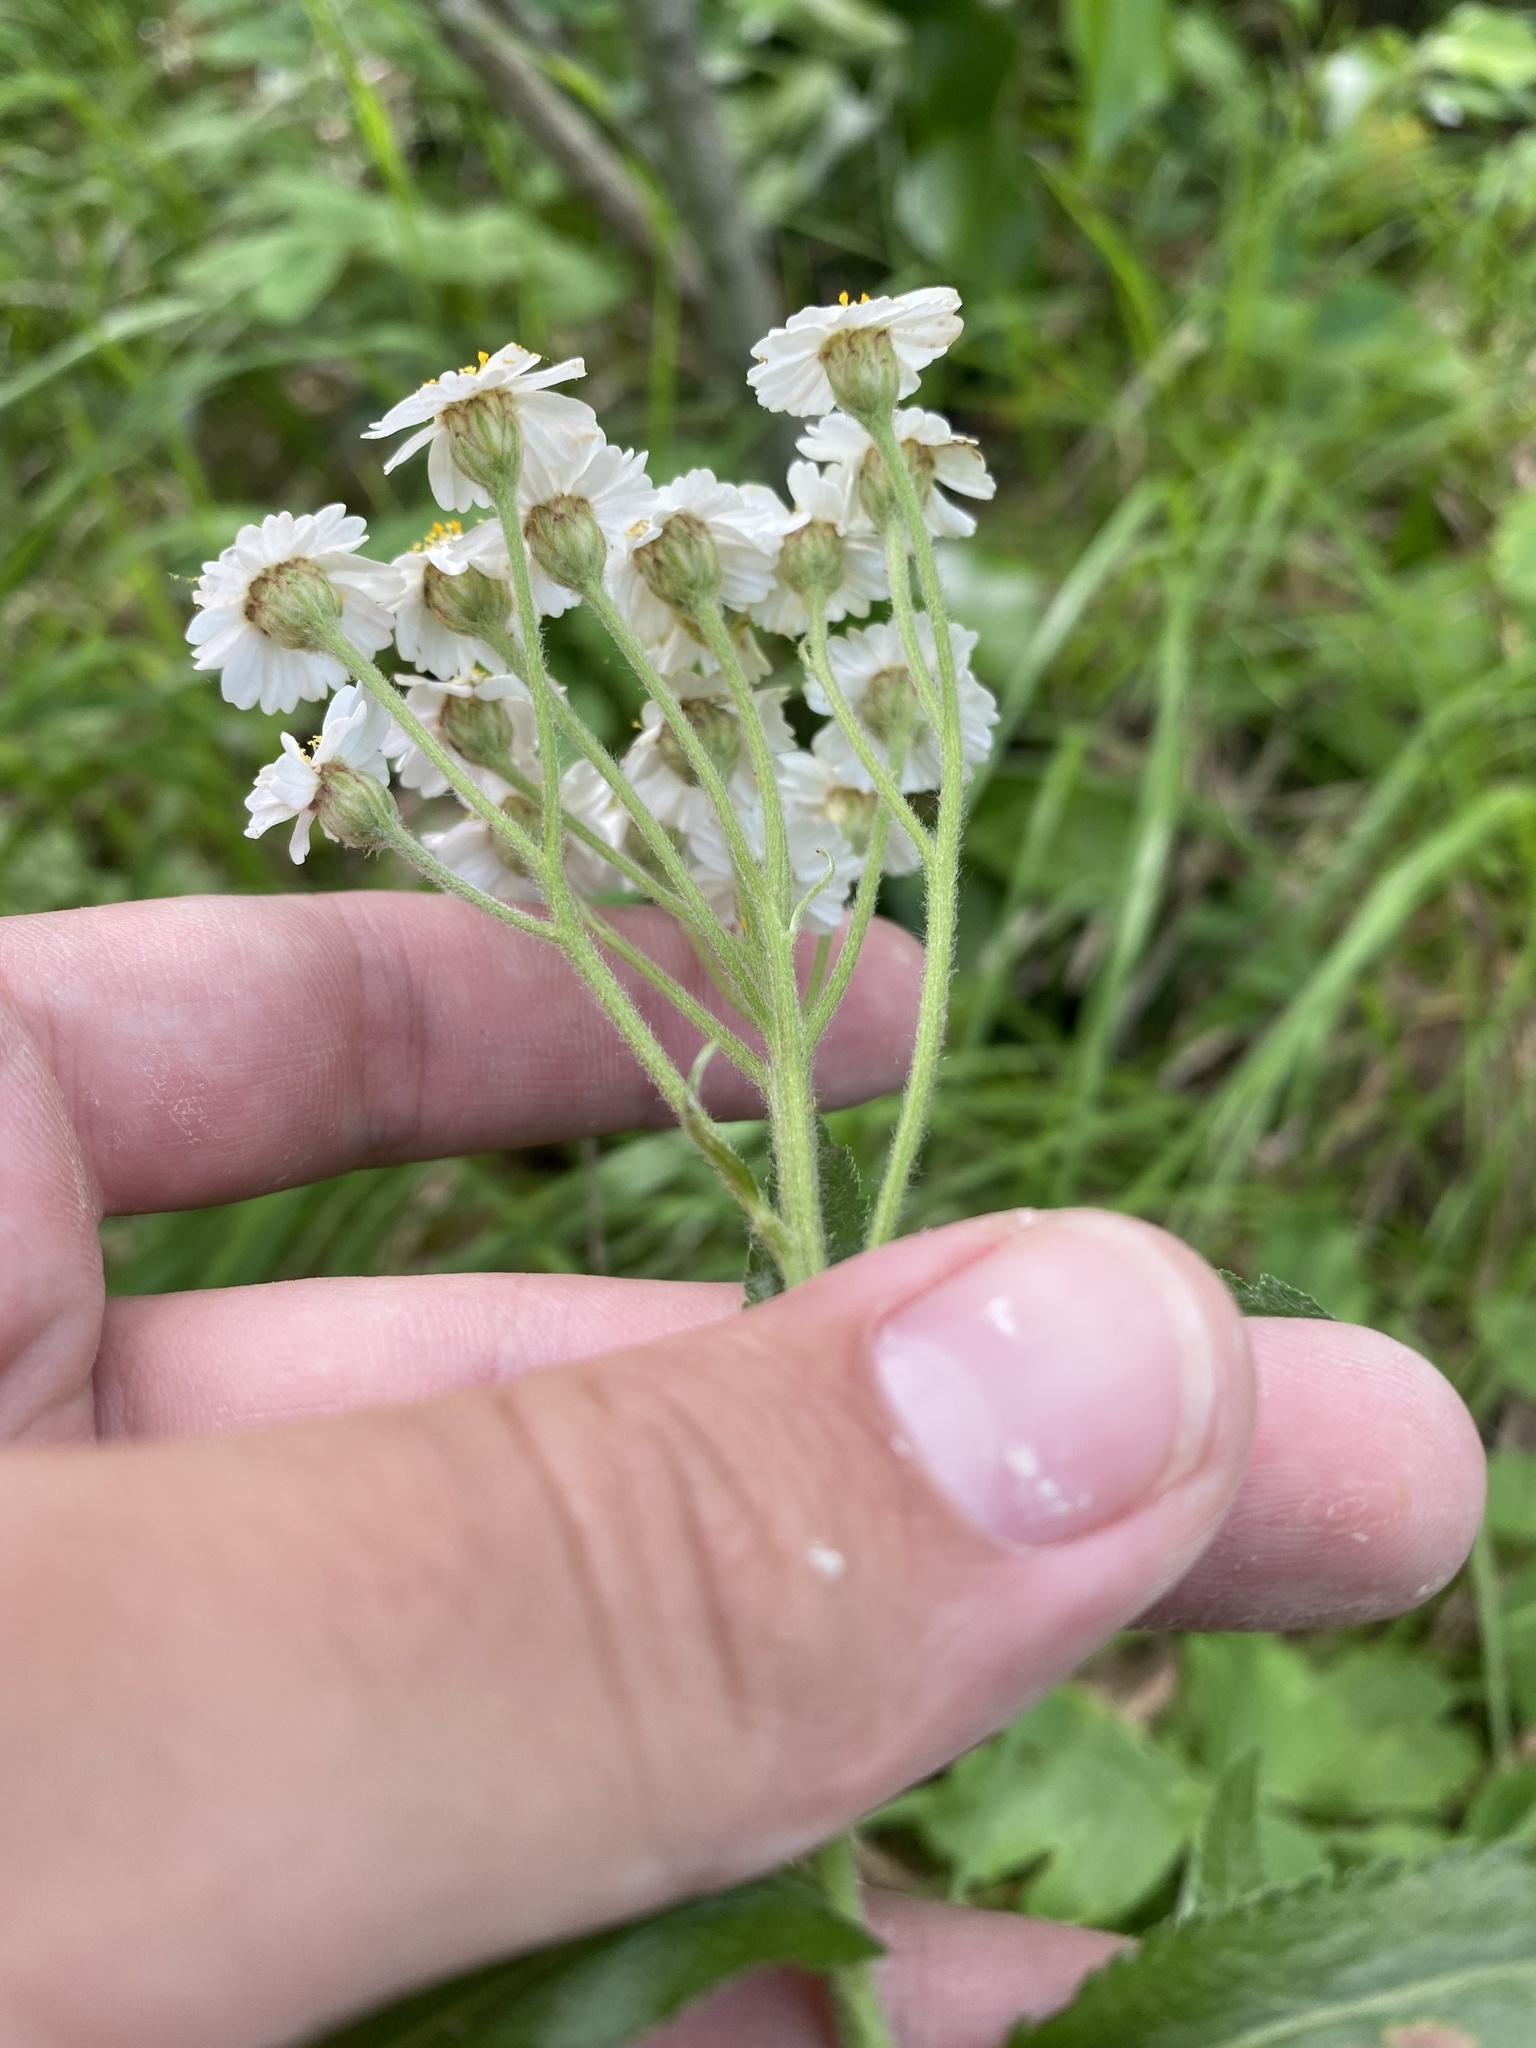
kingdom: Plantae
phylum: Tracheophyta
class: Magnoliopsida
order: Asterales
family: Asteraceae
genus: Achillea
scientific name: Achillea biserrata
